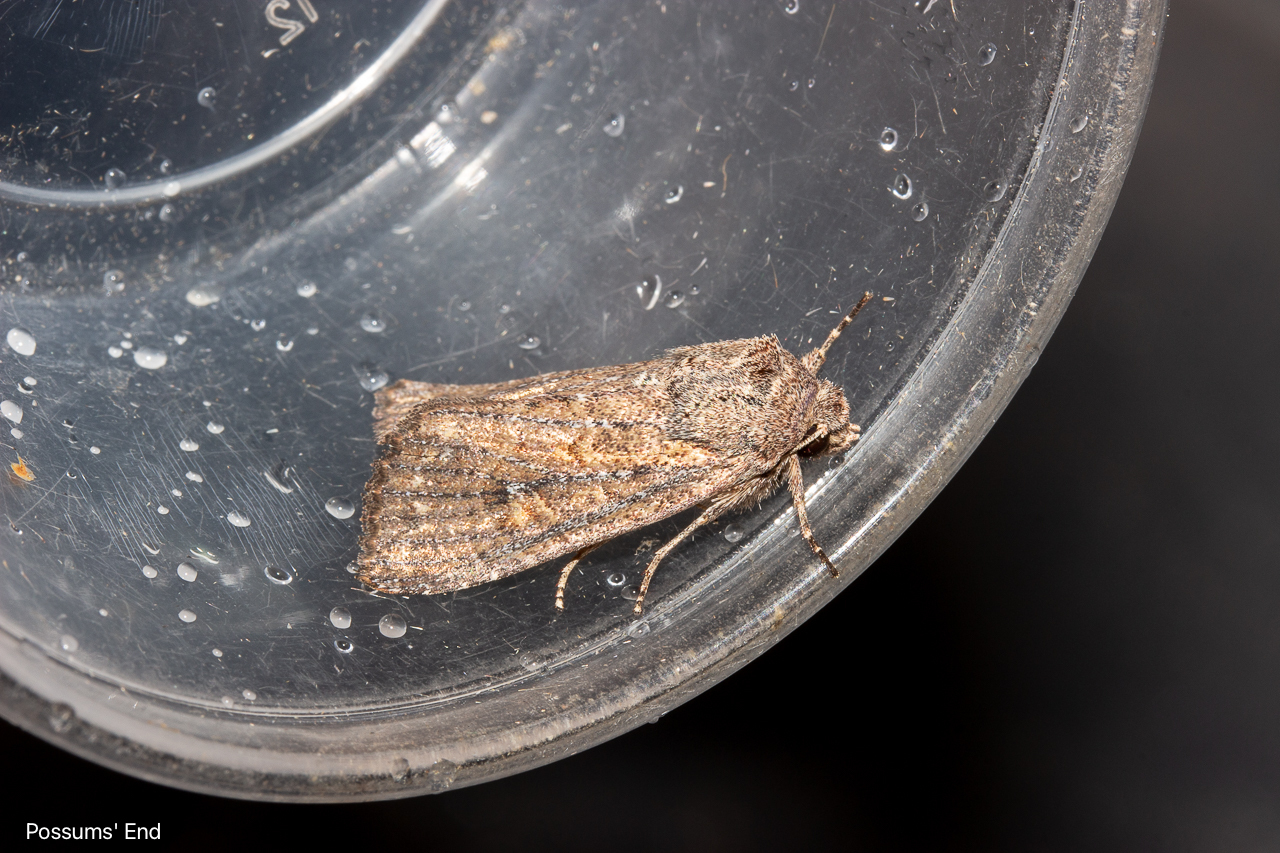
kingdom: Animalia
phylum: Arthropoda
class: Insecta
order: Lepidoptera
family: Noctuidae
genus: Ichneutica
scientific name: Ichneutica
